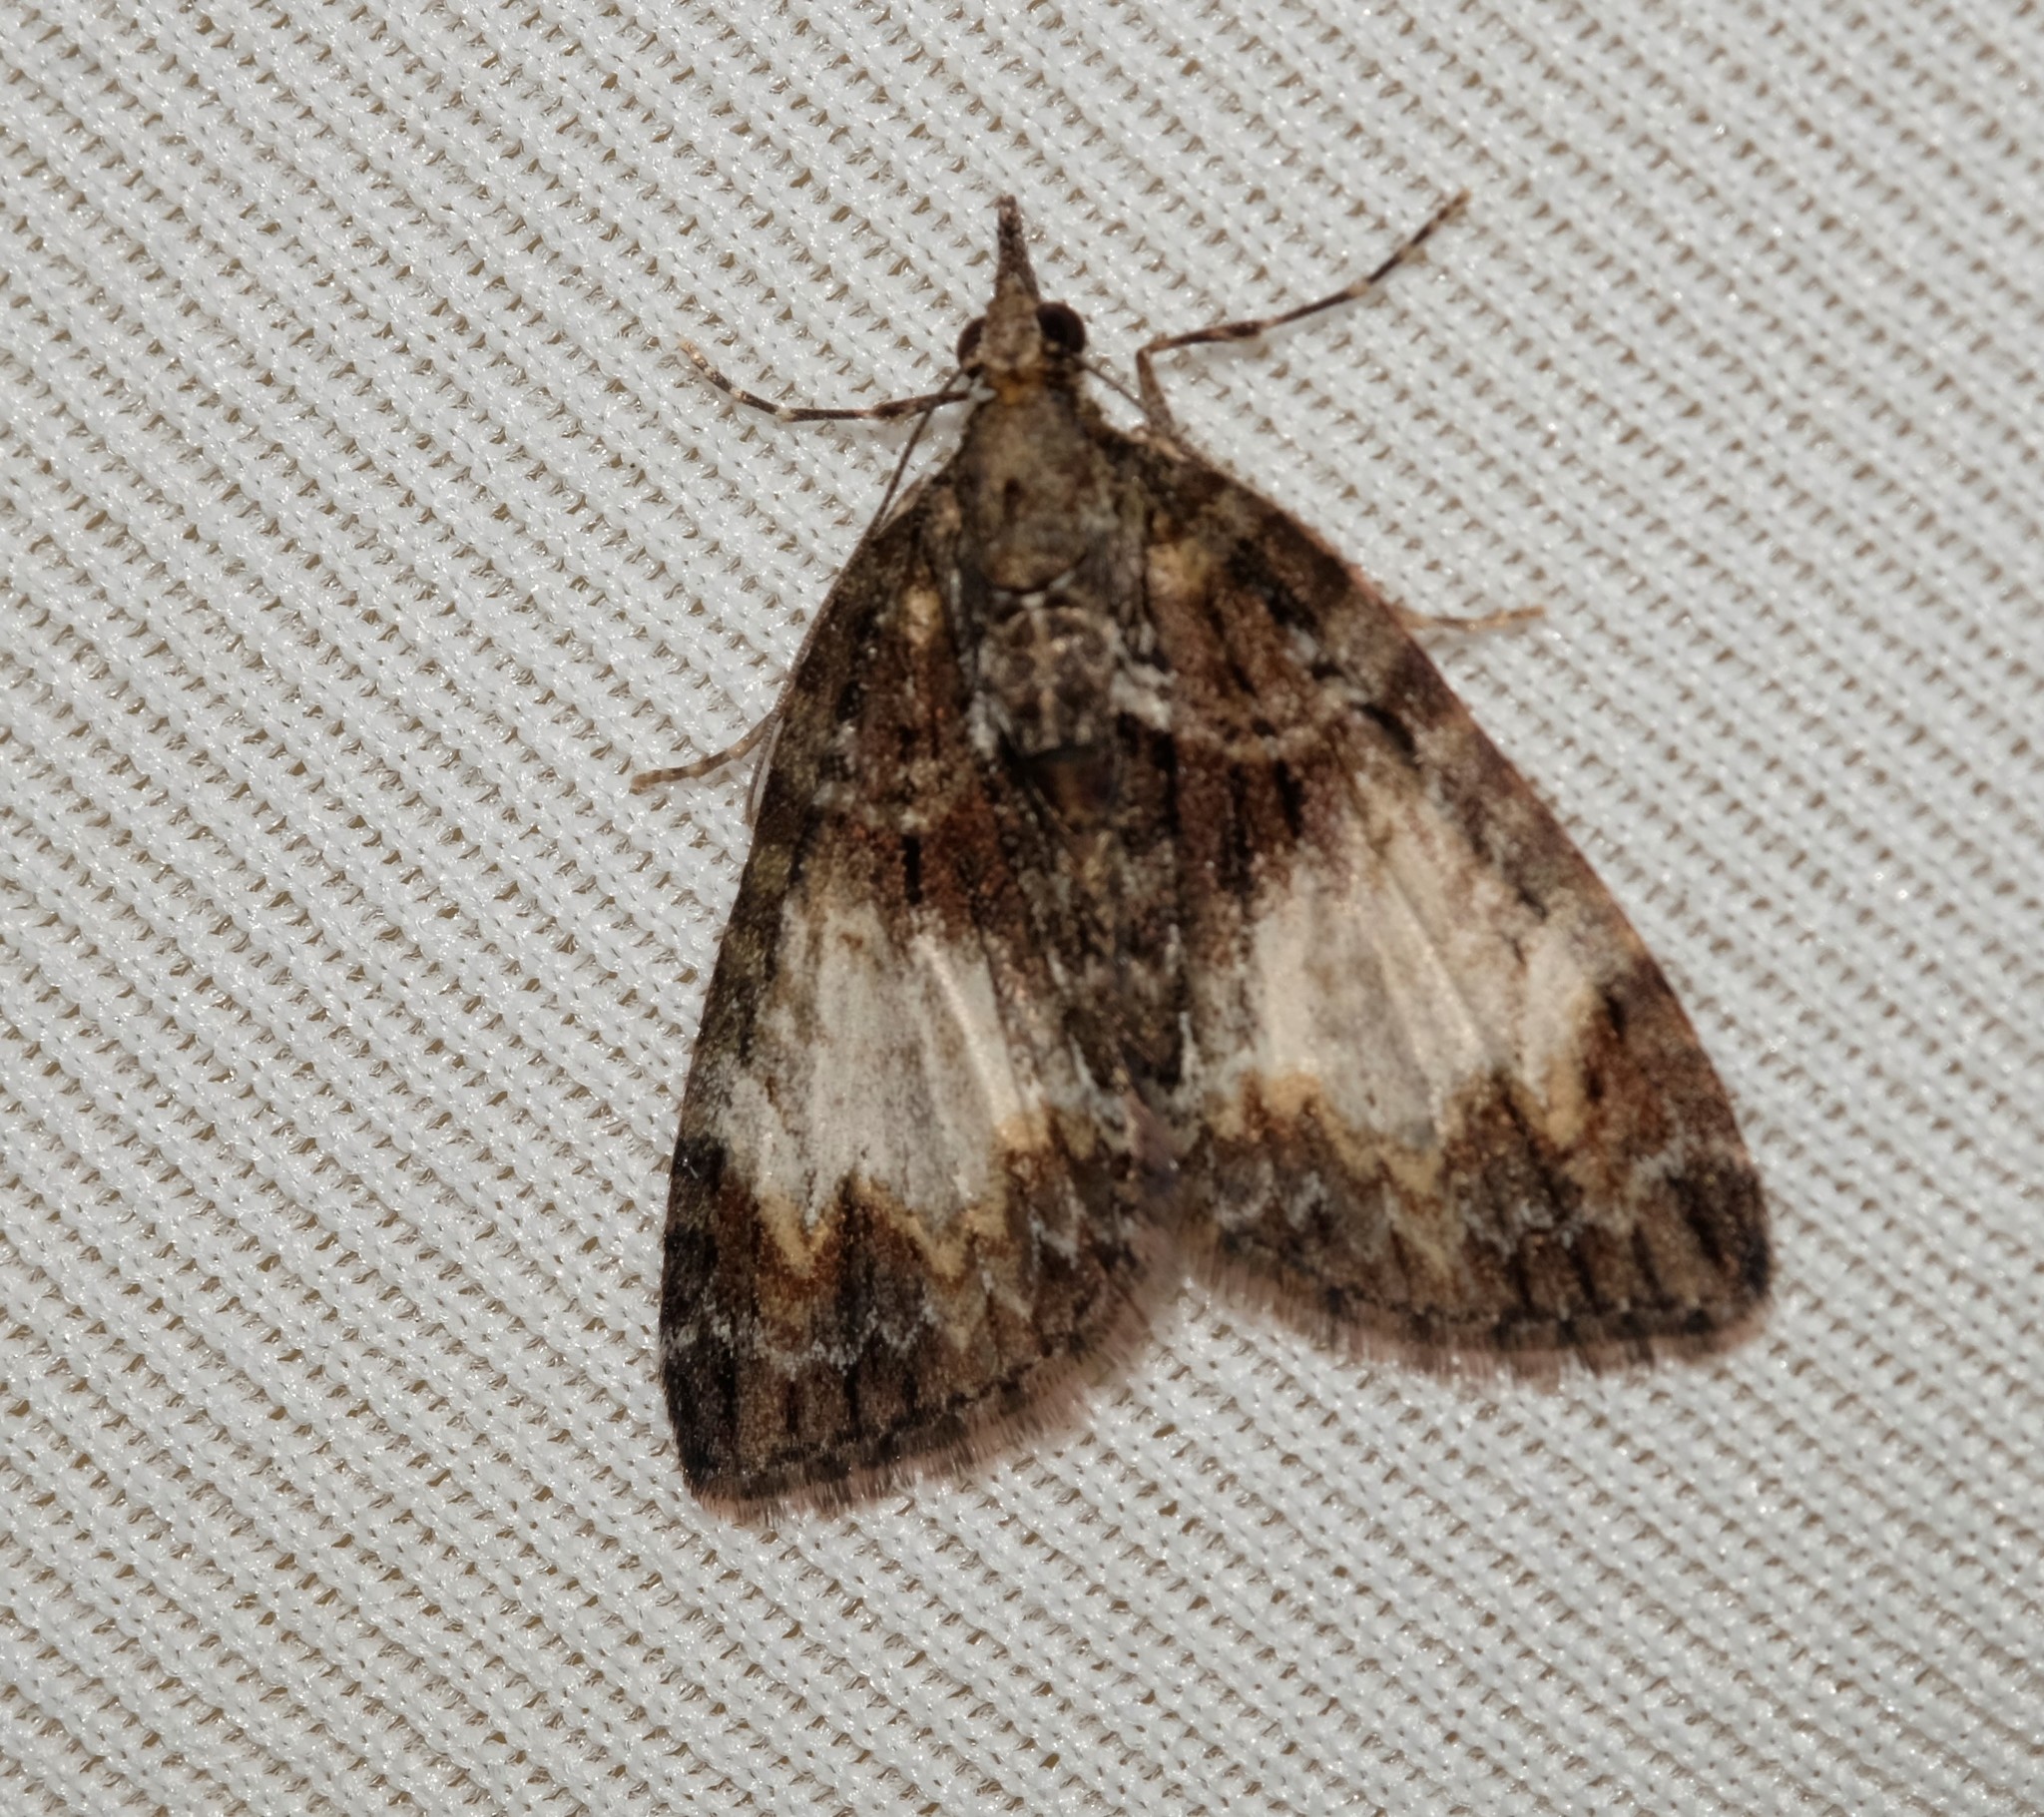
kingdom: Animalia
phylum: Arthropoda
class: Insecta
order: Lepidoptera
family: Geometridae
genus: Microdes
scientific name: Microdes diplodonta
